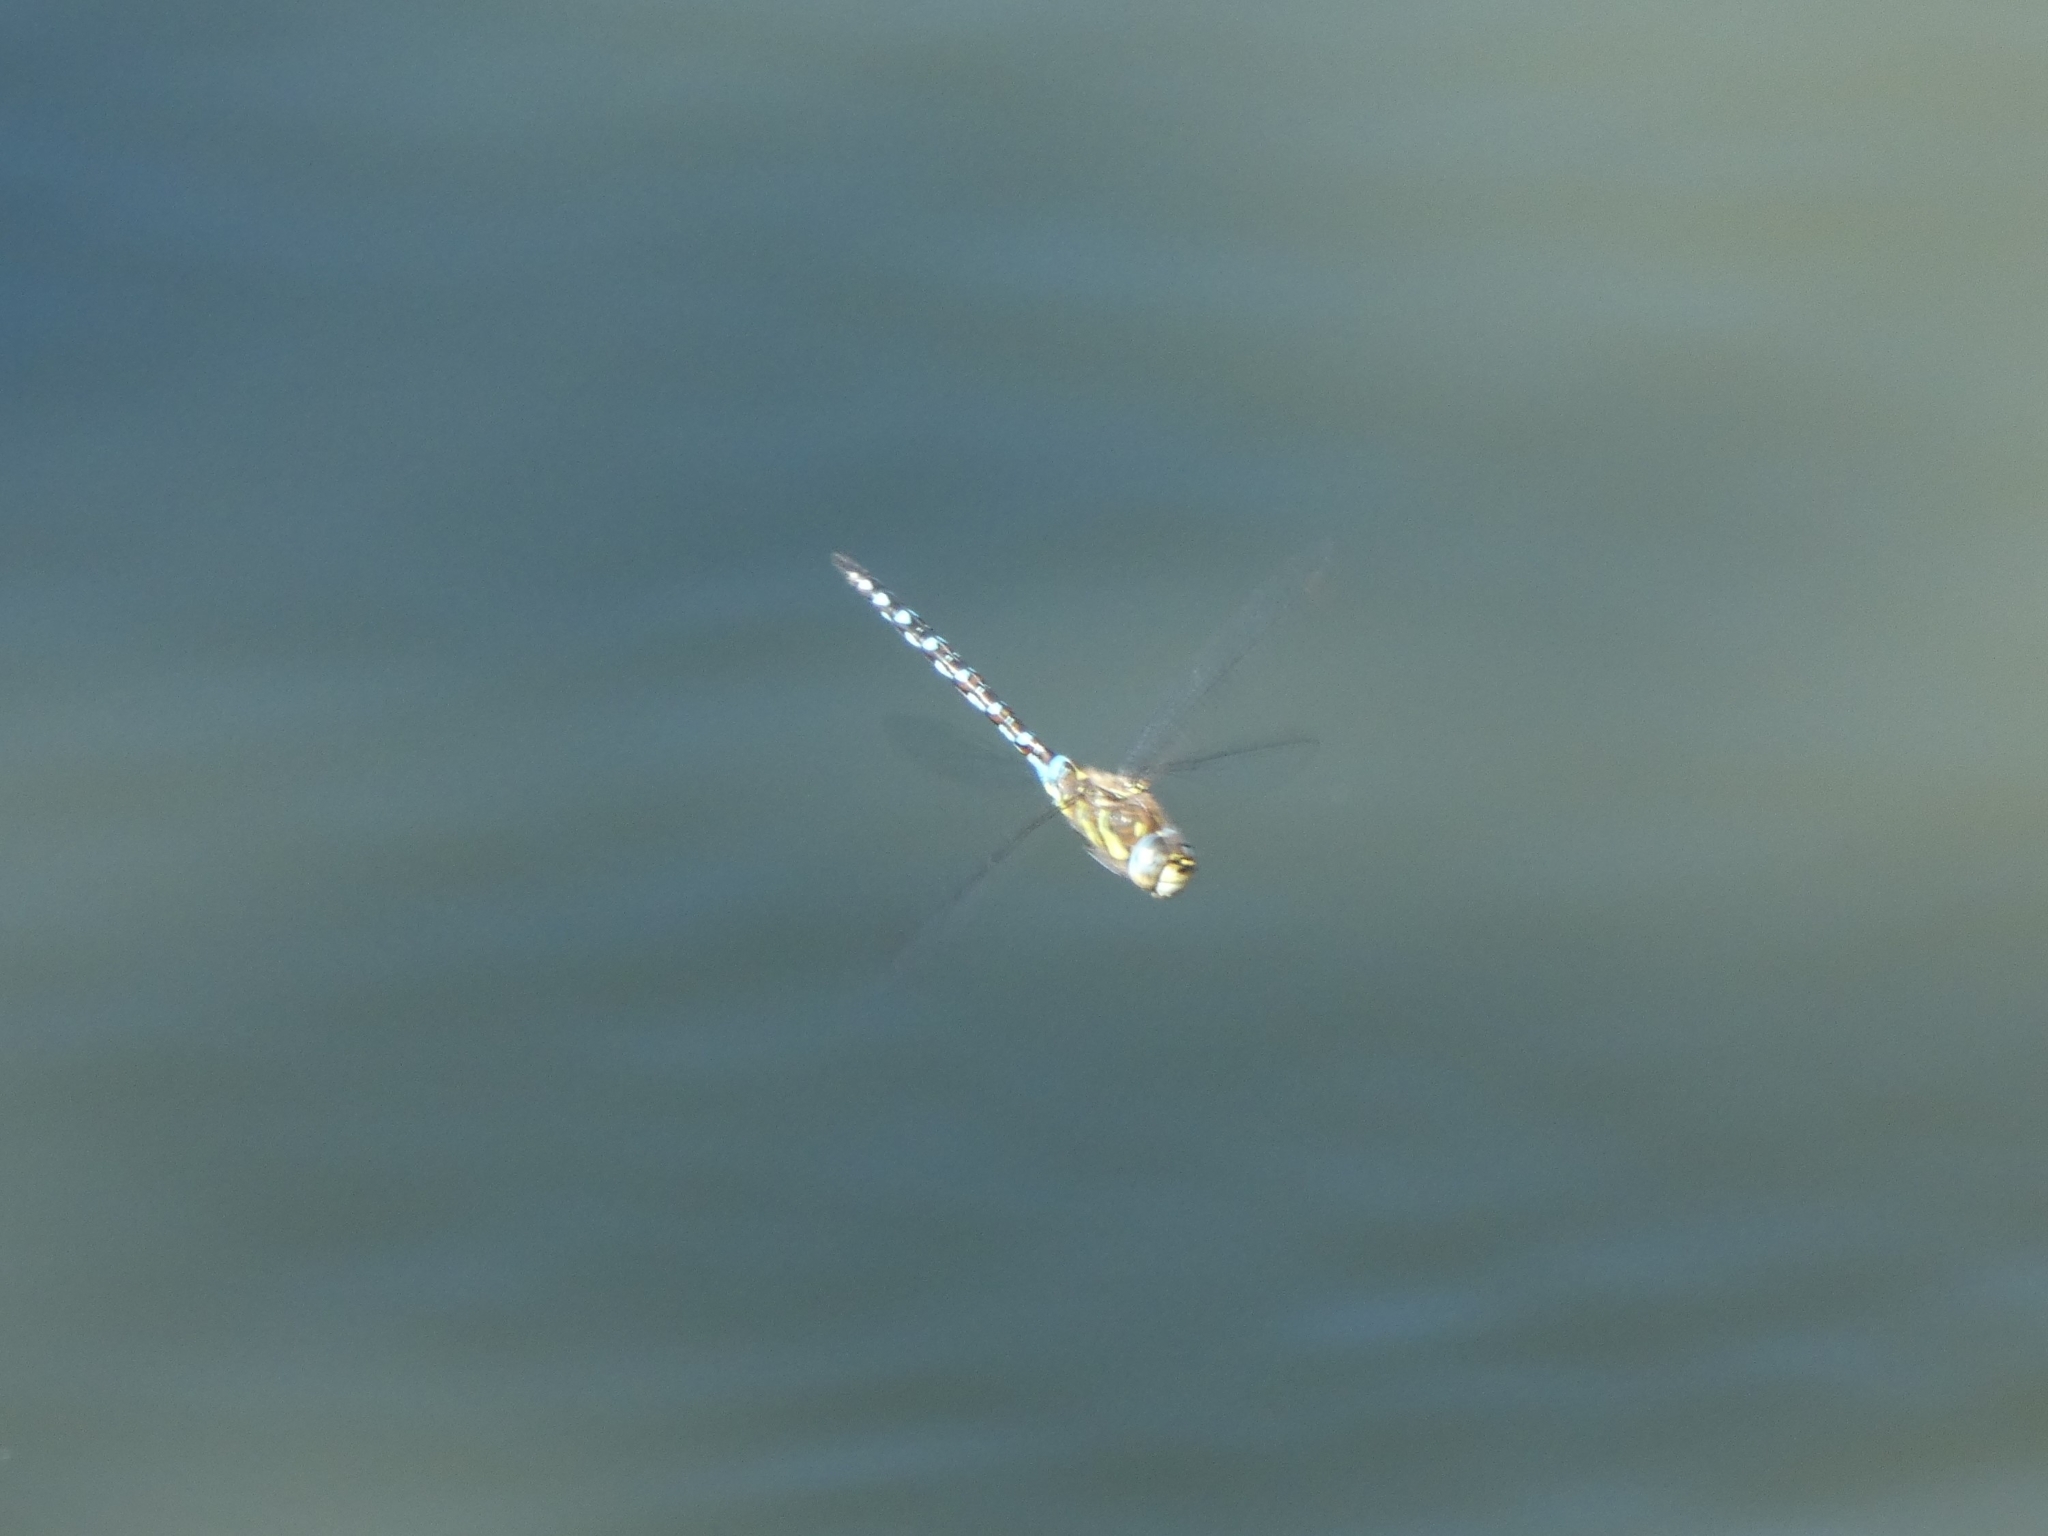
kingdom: Animalia
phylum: Arthropoda
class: Insecta
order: Odonata
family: Aeshnidae
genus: Aeshna
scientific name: Aeshna mixta
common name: Migrant hawker
